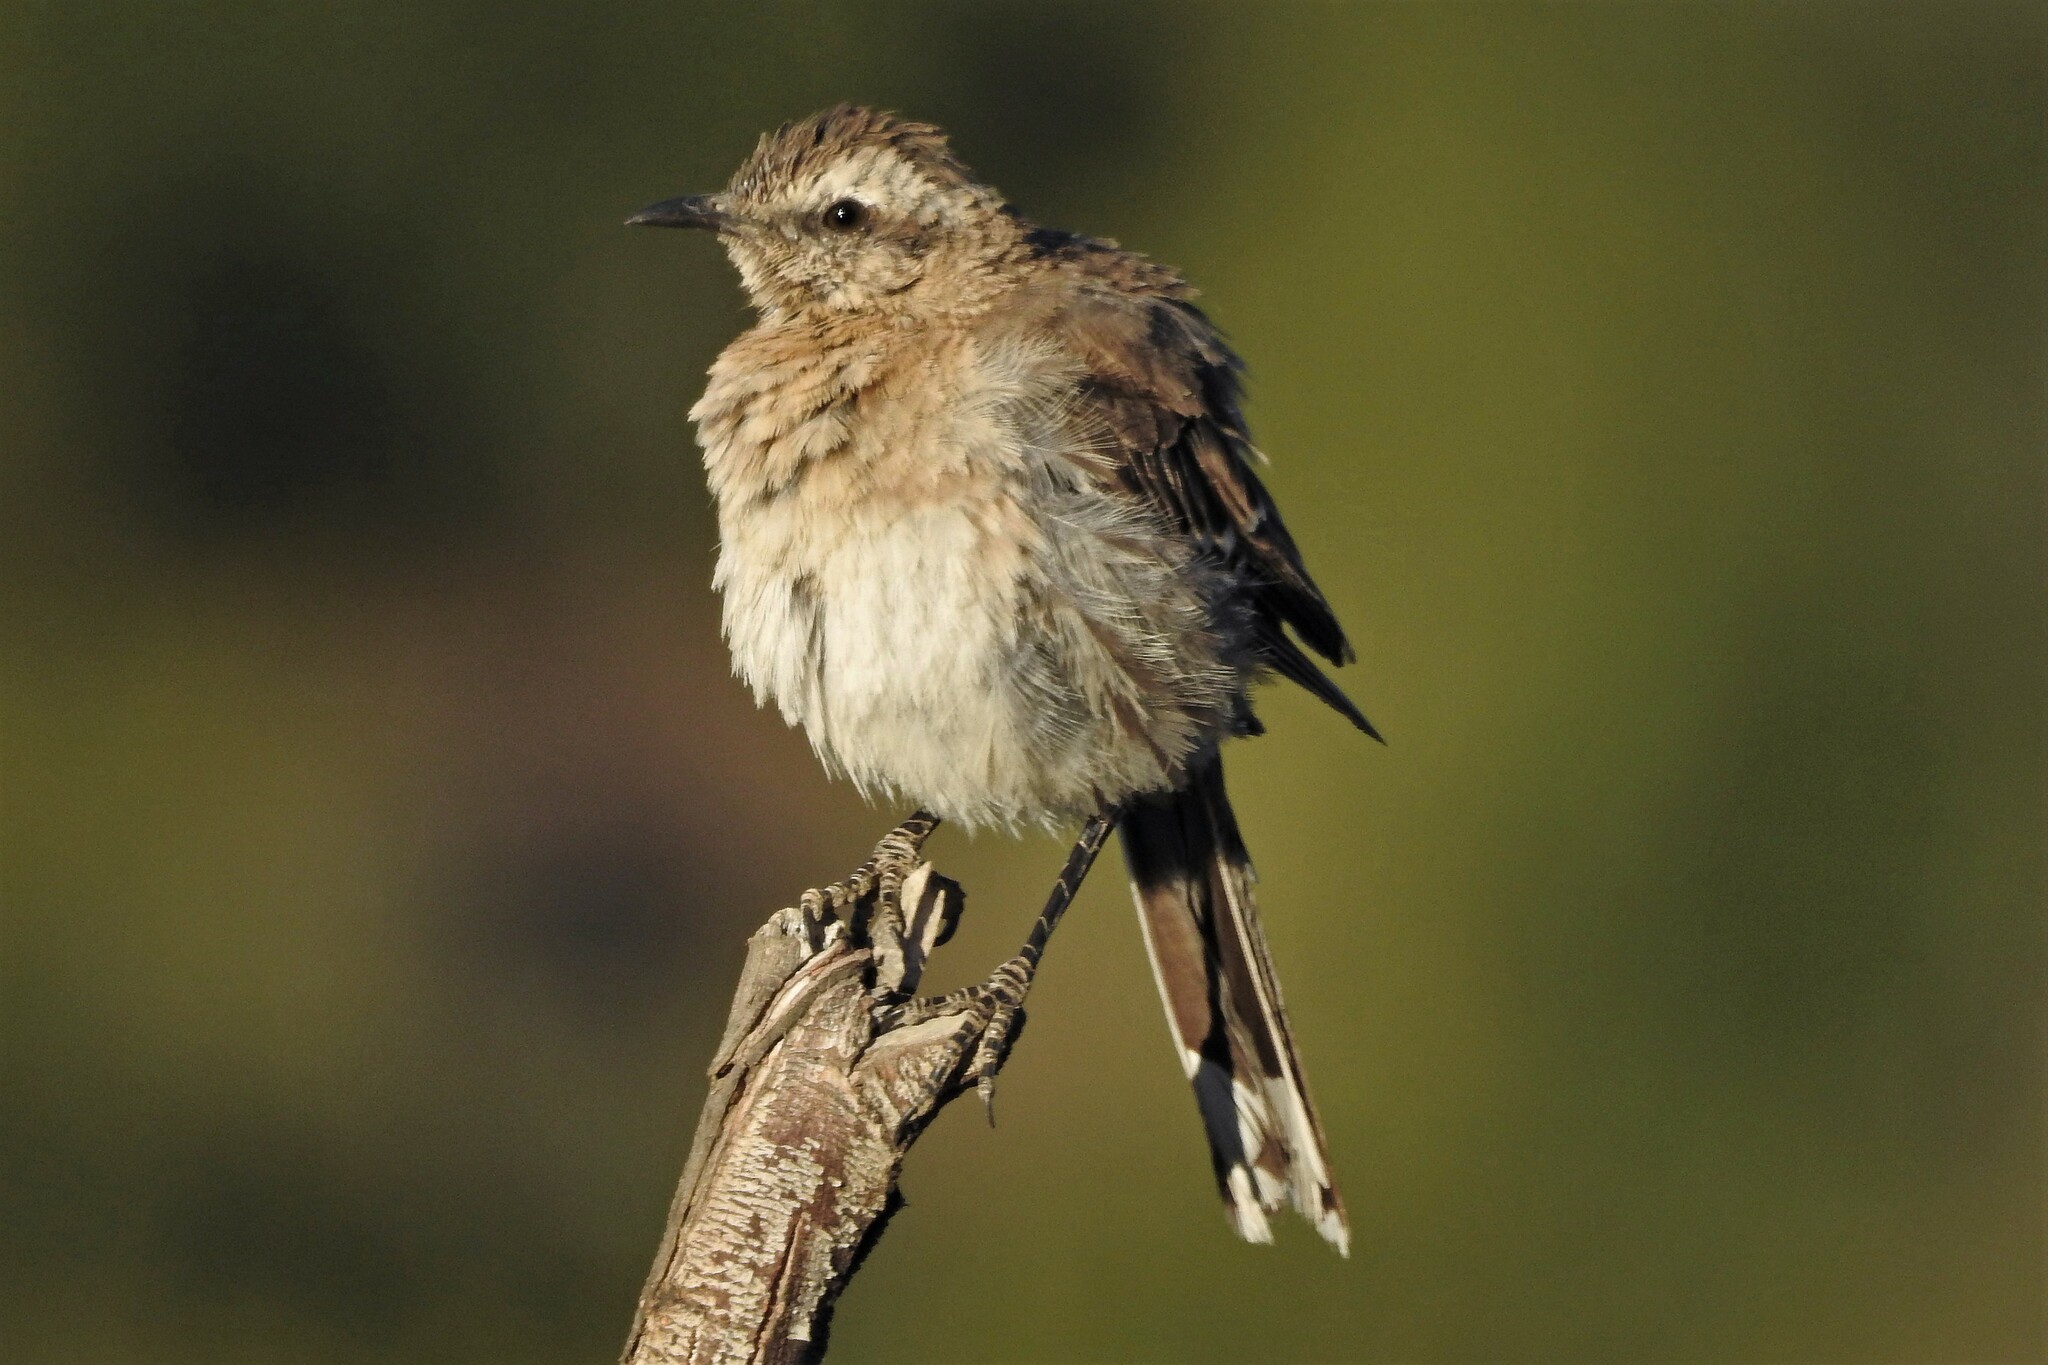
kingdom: Animalia
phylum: Chordata
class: Aves
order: Passeriformes
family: Mimidae
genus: Mimus
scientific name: Mimus thenca
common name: Chilean mockingbird
